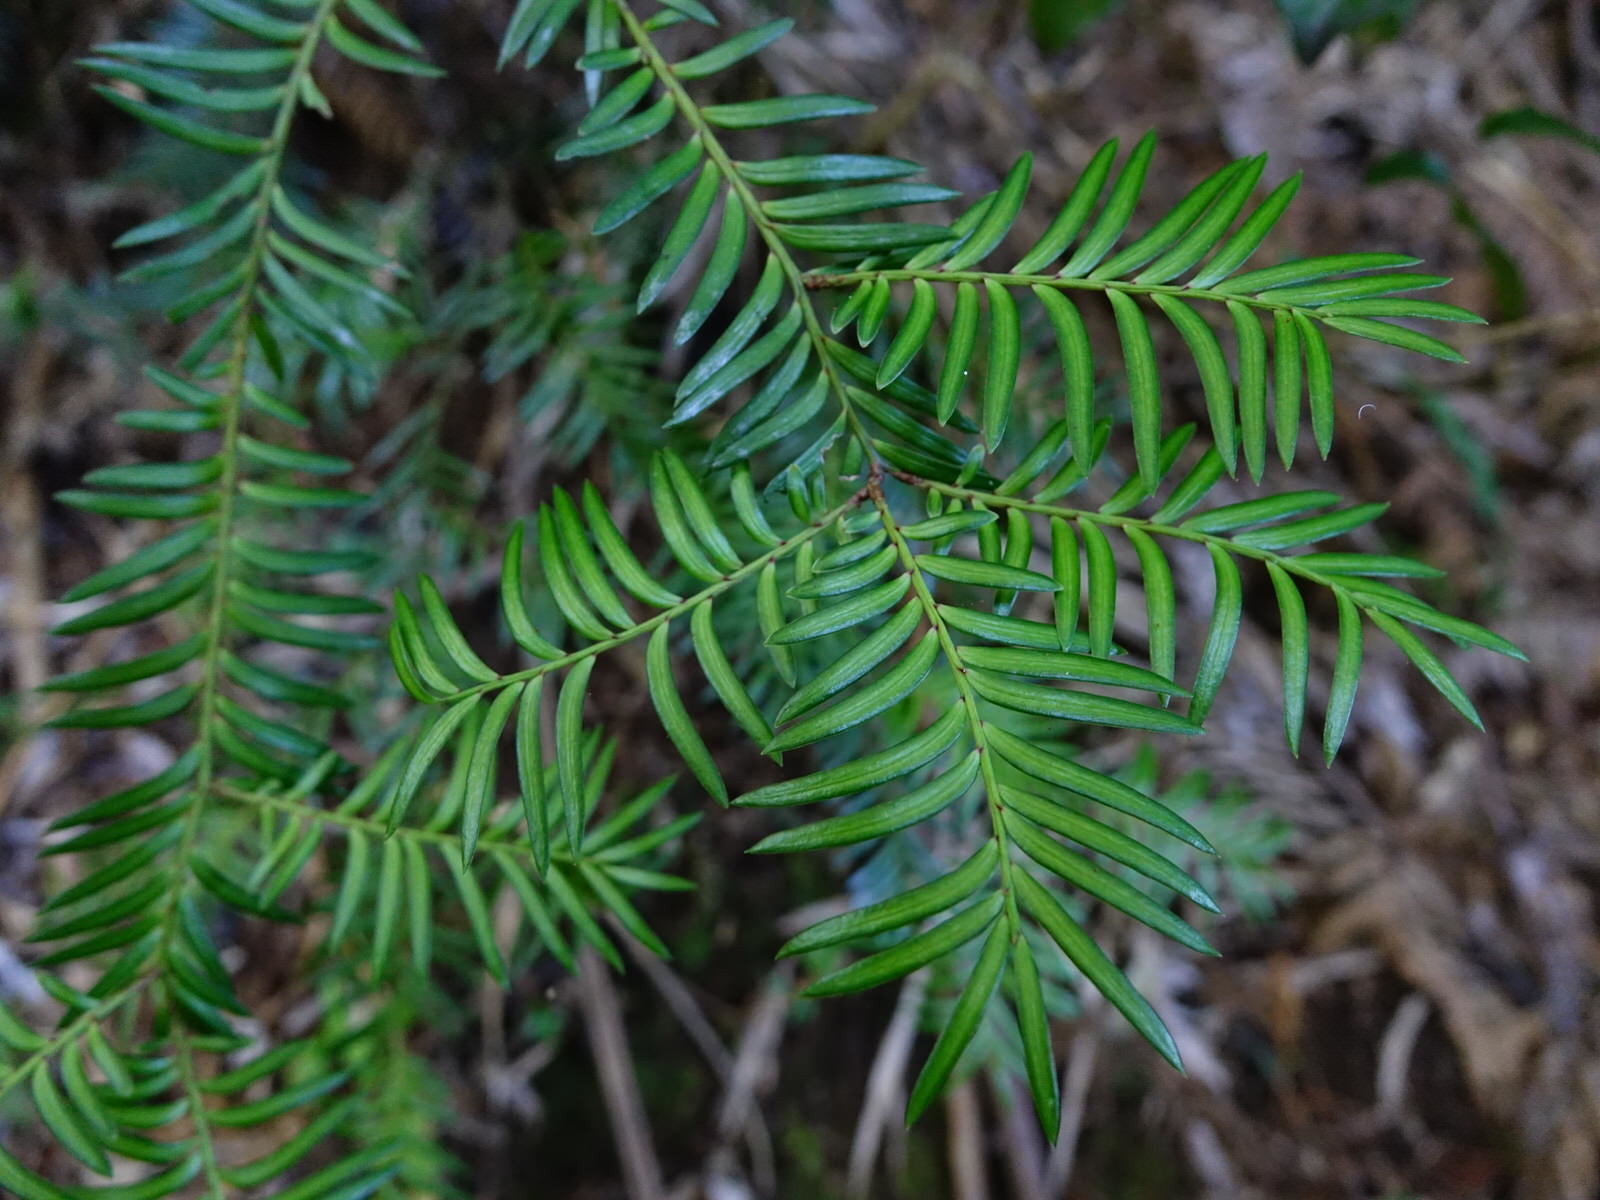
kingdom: Plantae
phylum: Tracheophyta
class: Pinopsida
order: Pinales
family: Podocarpaceae
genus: Prumnopitys
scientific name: Prumnopitys ferruginea
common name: Brown pine
